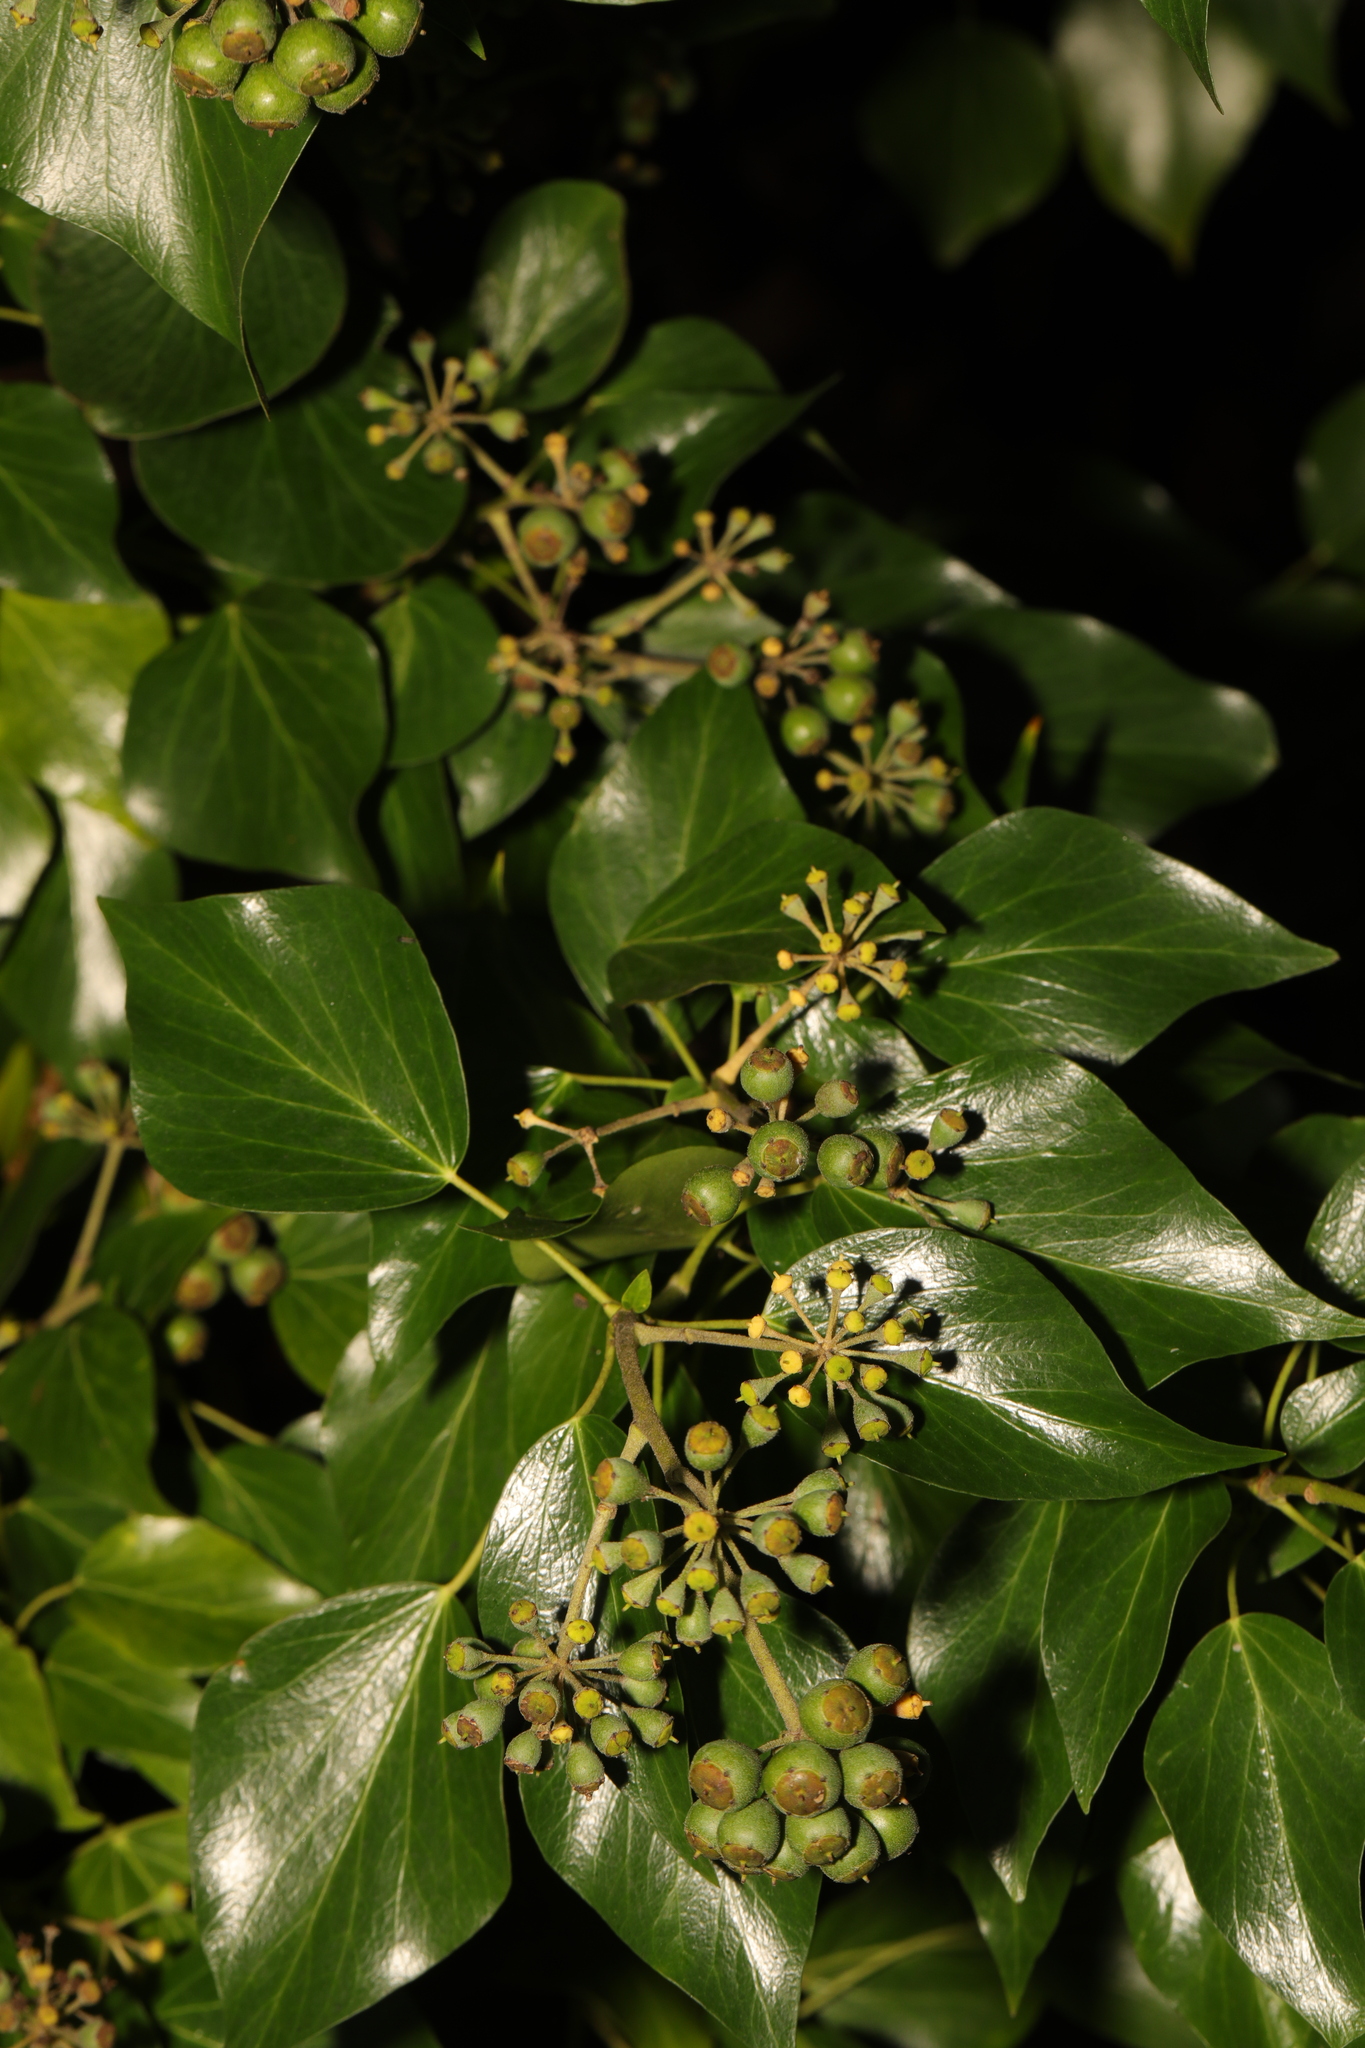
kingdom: Plantae
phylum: Tracheophyta
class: Magnoliopsida
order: Apiales
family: Araliaceae
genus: Hedera
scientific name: Hedera helix
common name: Ivy
